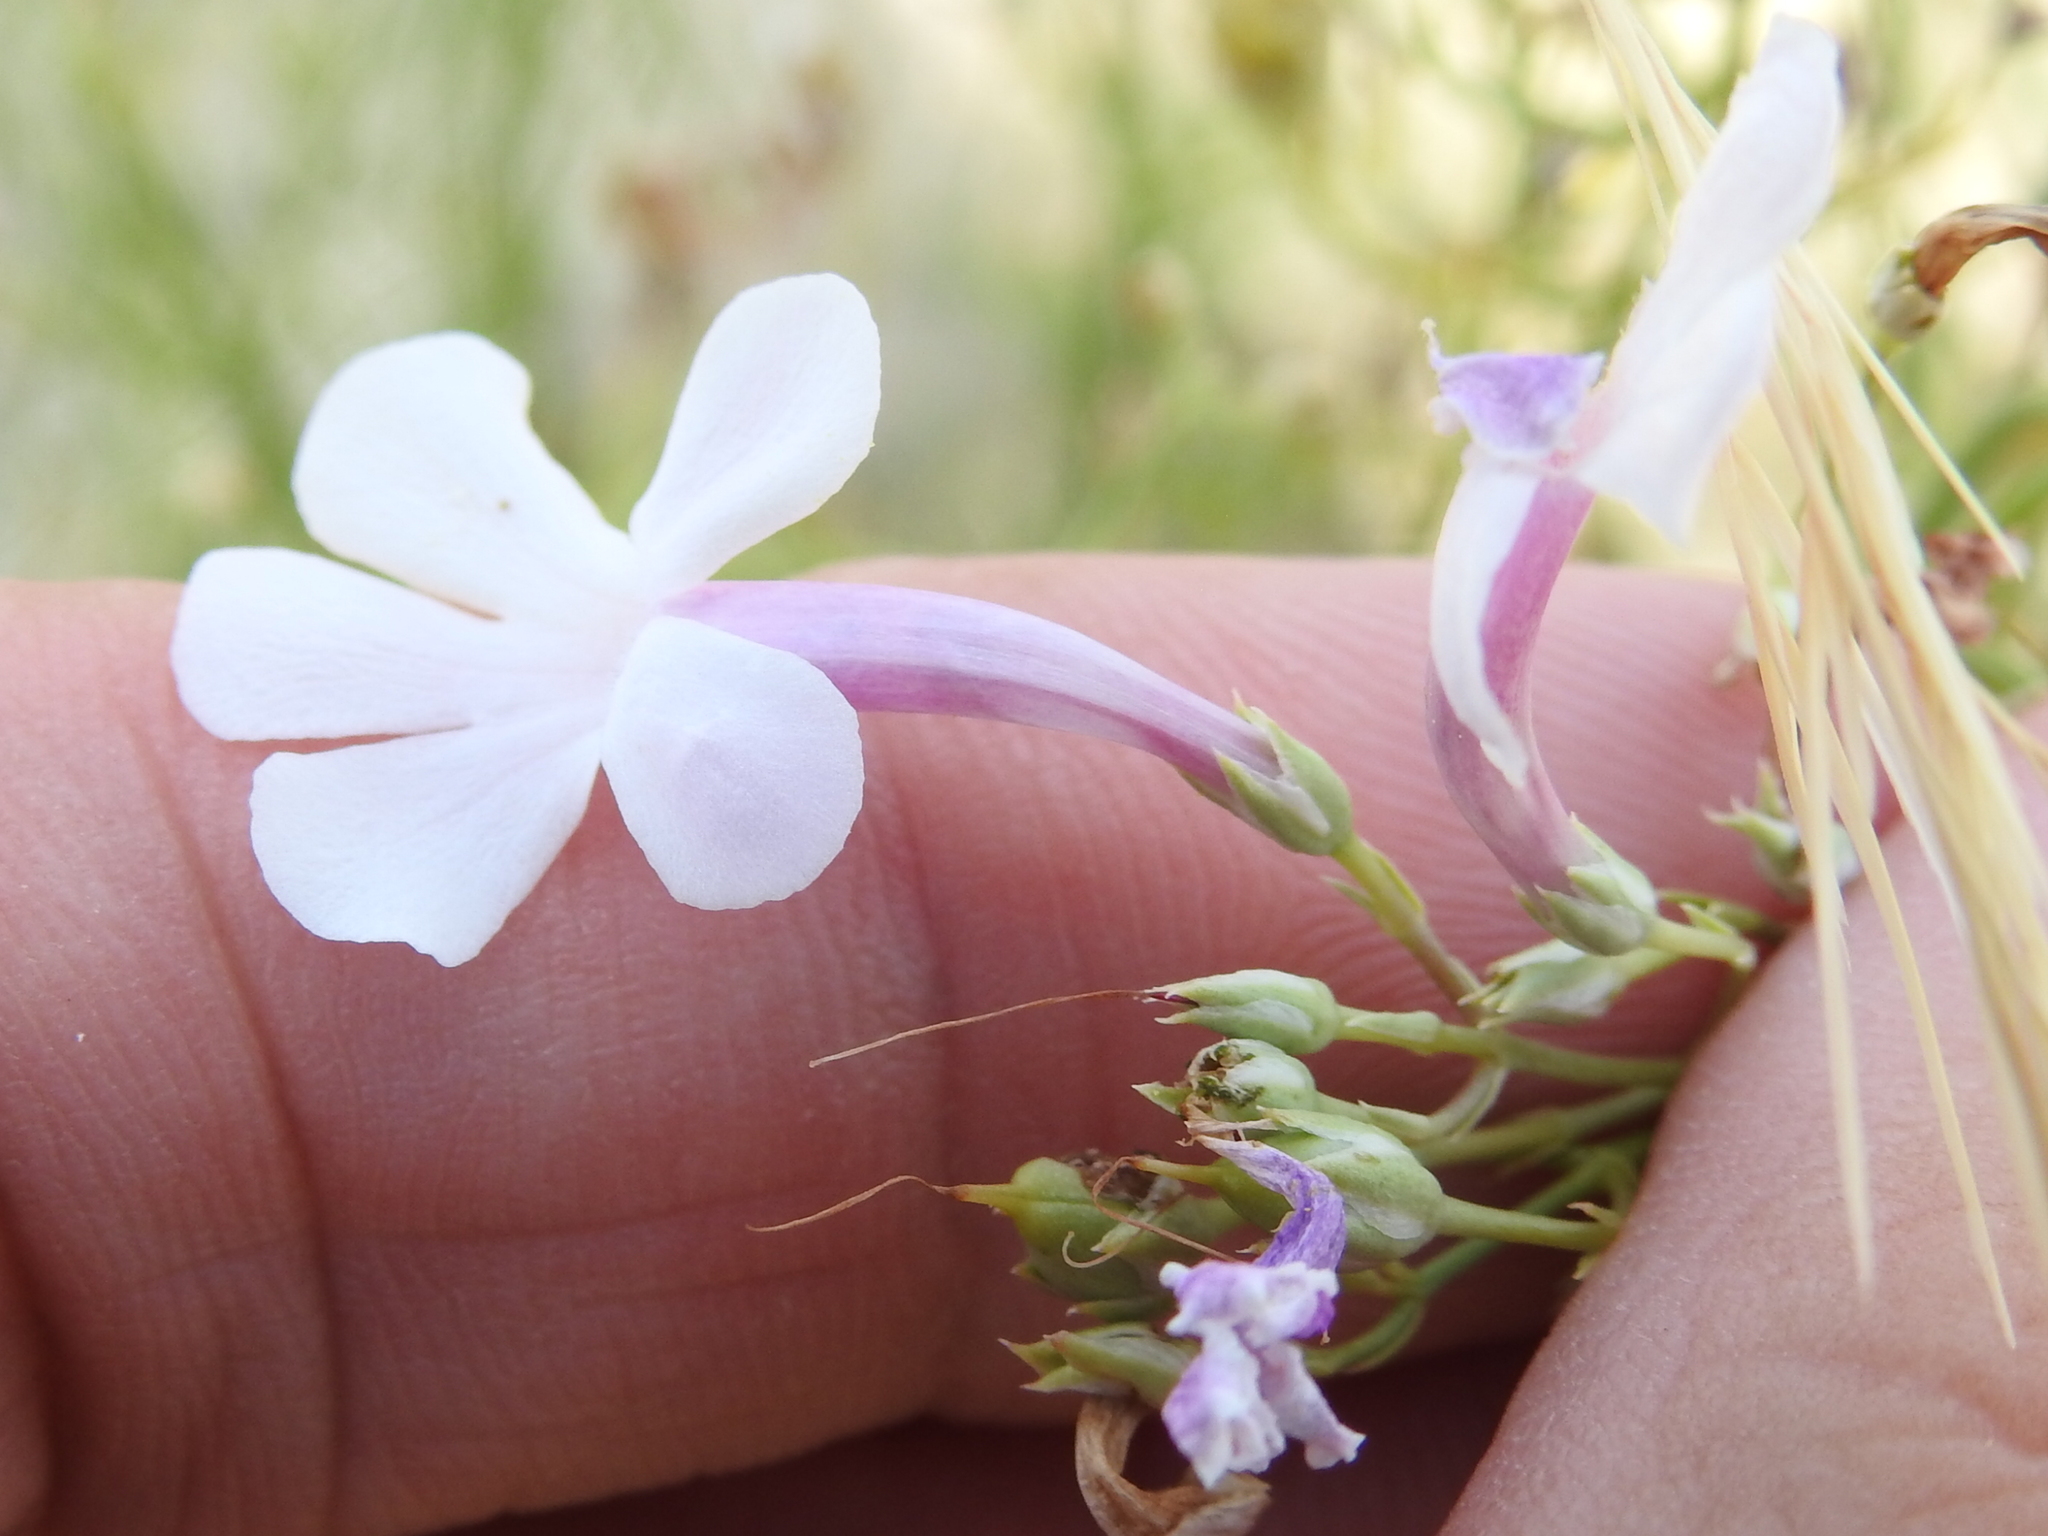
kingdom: Plantae
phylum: Tracheophyta
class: Magnoliopsida
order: Lamiales
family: Plantaginaceae
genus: Penstemon
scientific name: Penstemon ambiguus
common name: Bush penstemon
